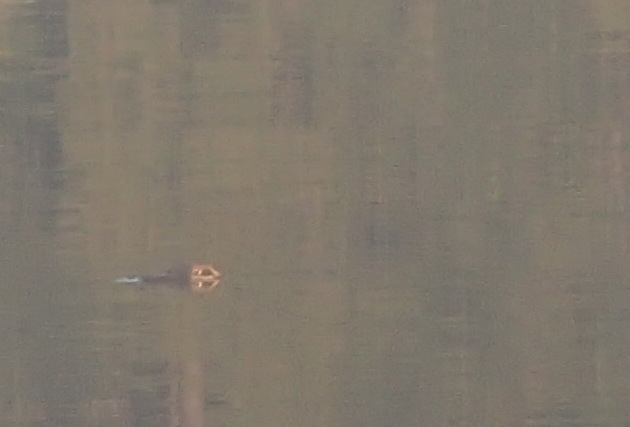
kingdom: Animalia
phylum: Chordata
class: Crocodylia
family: Alligatoridae
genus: Alligator
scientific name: Alligator mississippiensis
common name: American alligator
